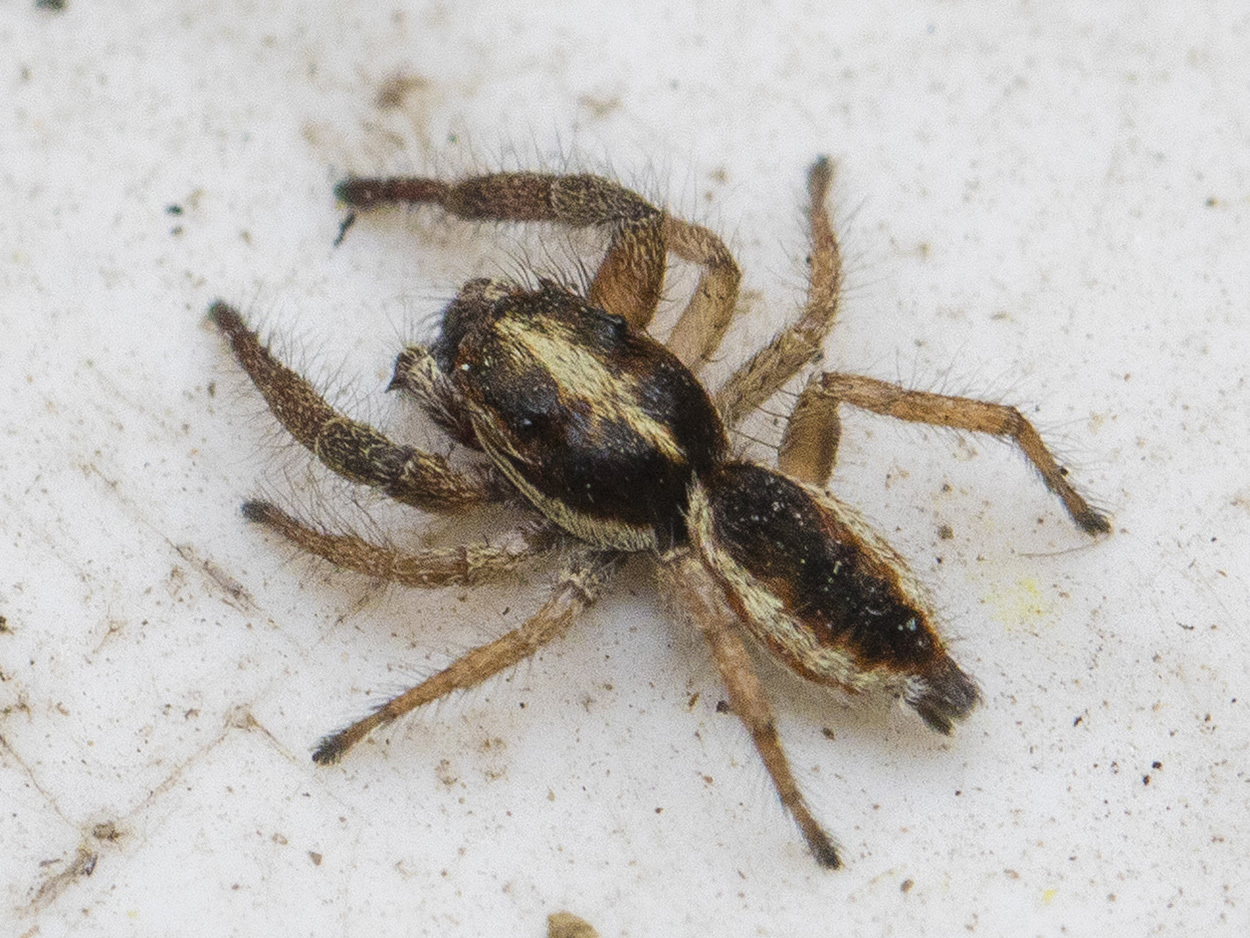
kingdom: Animalia
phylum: Arthropoda
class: Arachnida
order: Araneae
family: Salticidae
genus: Rudakius
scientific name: Rudakius cinctus
